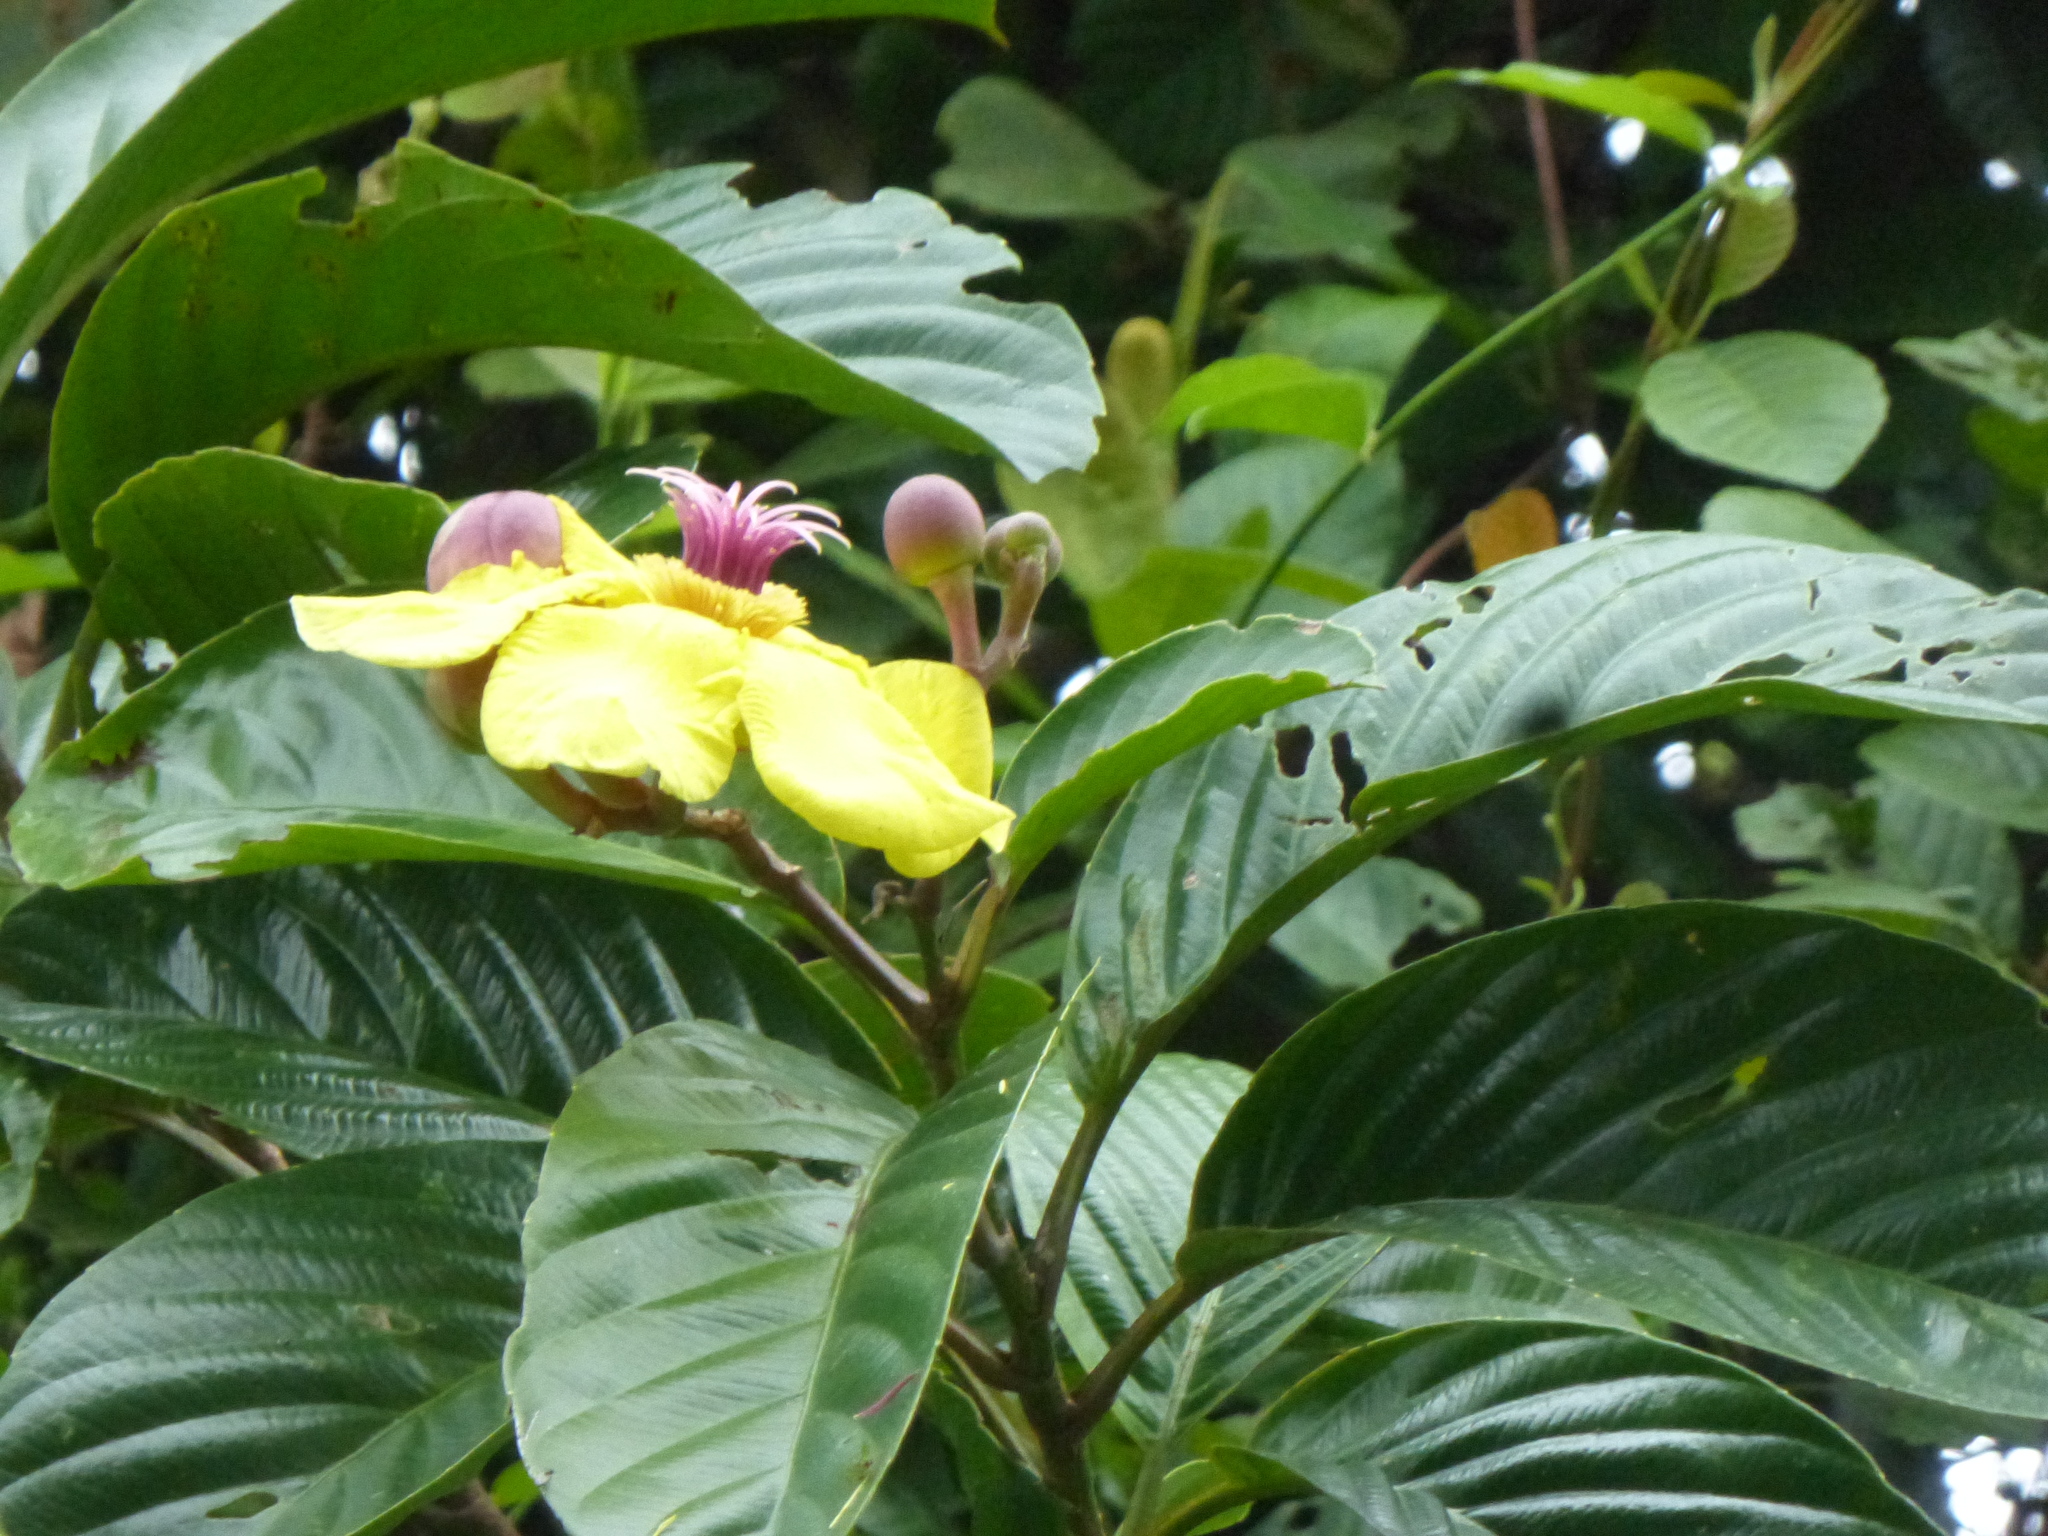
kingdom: Plantae
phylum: Tracheophyta
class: Magnoliopsida
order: Dilleniales
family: Dilleniaceae
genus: Dillenia
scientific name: Dillenia excelsa
